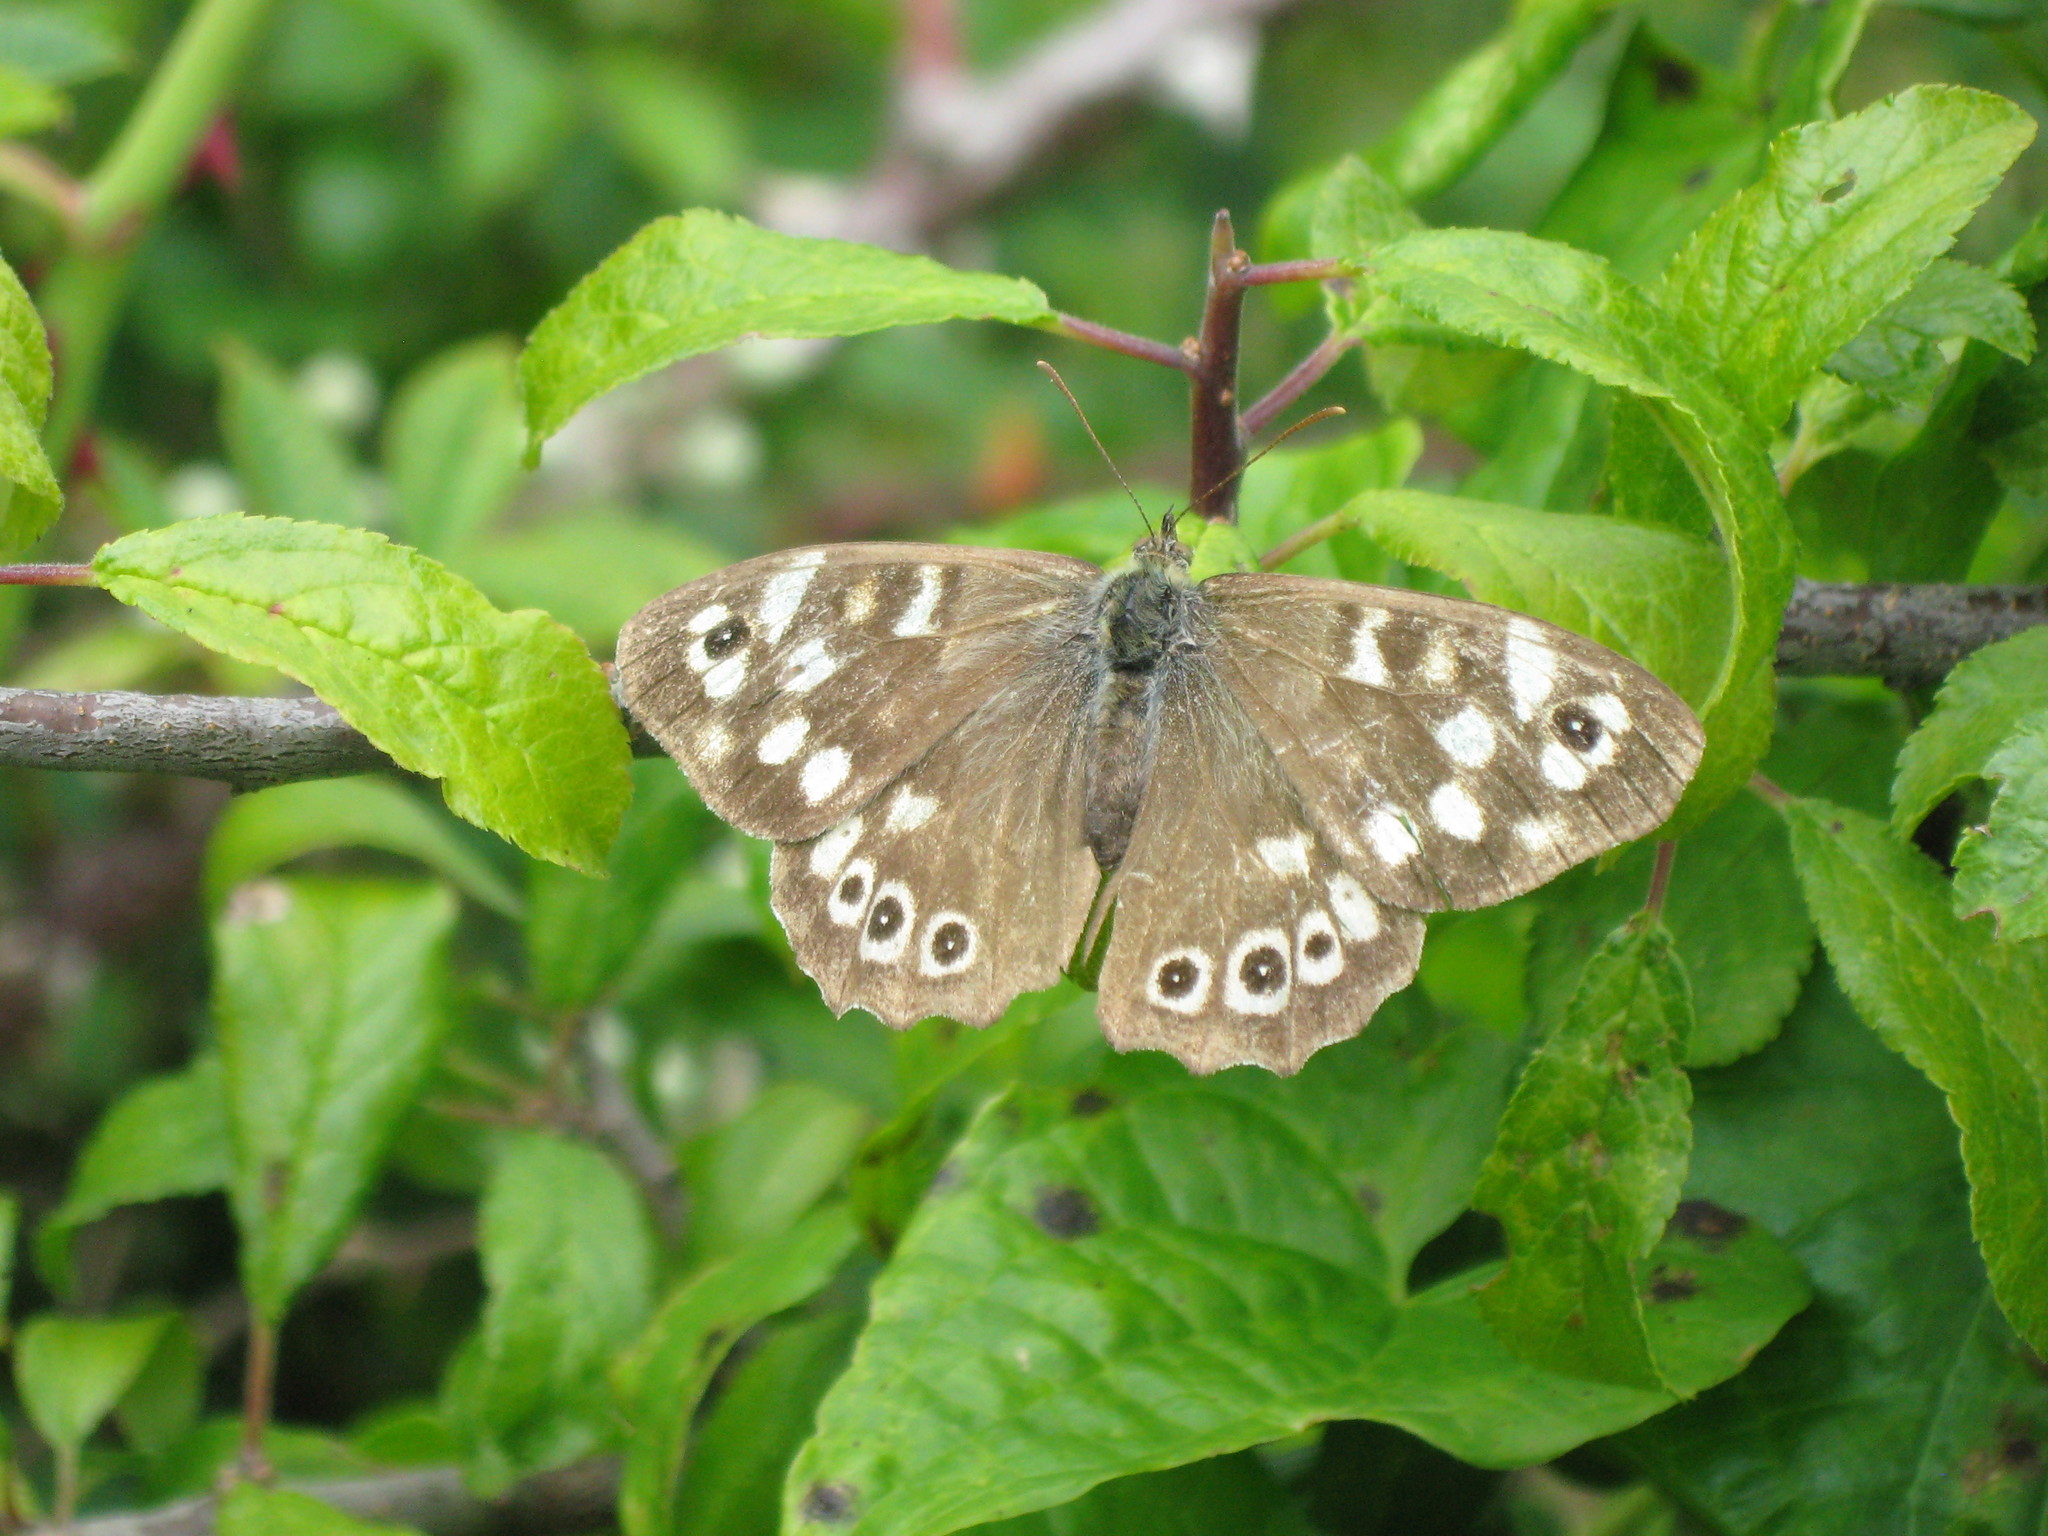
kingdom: Animalia
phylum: Arthropoda
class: Insecta
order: Lepidoptera
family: Nymphalidae
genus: Pararge
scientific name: Pararge aegeria
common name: Speckled wood
